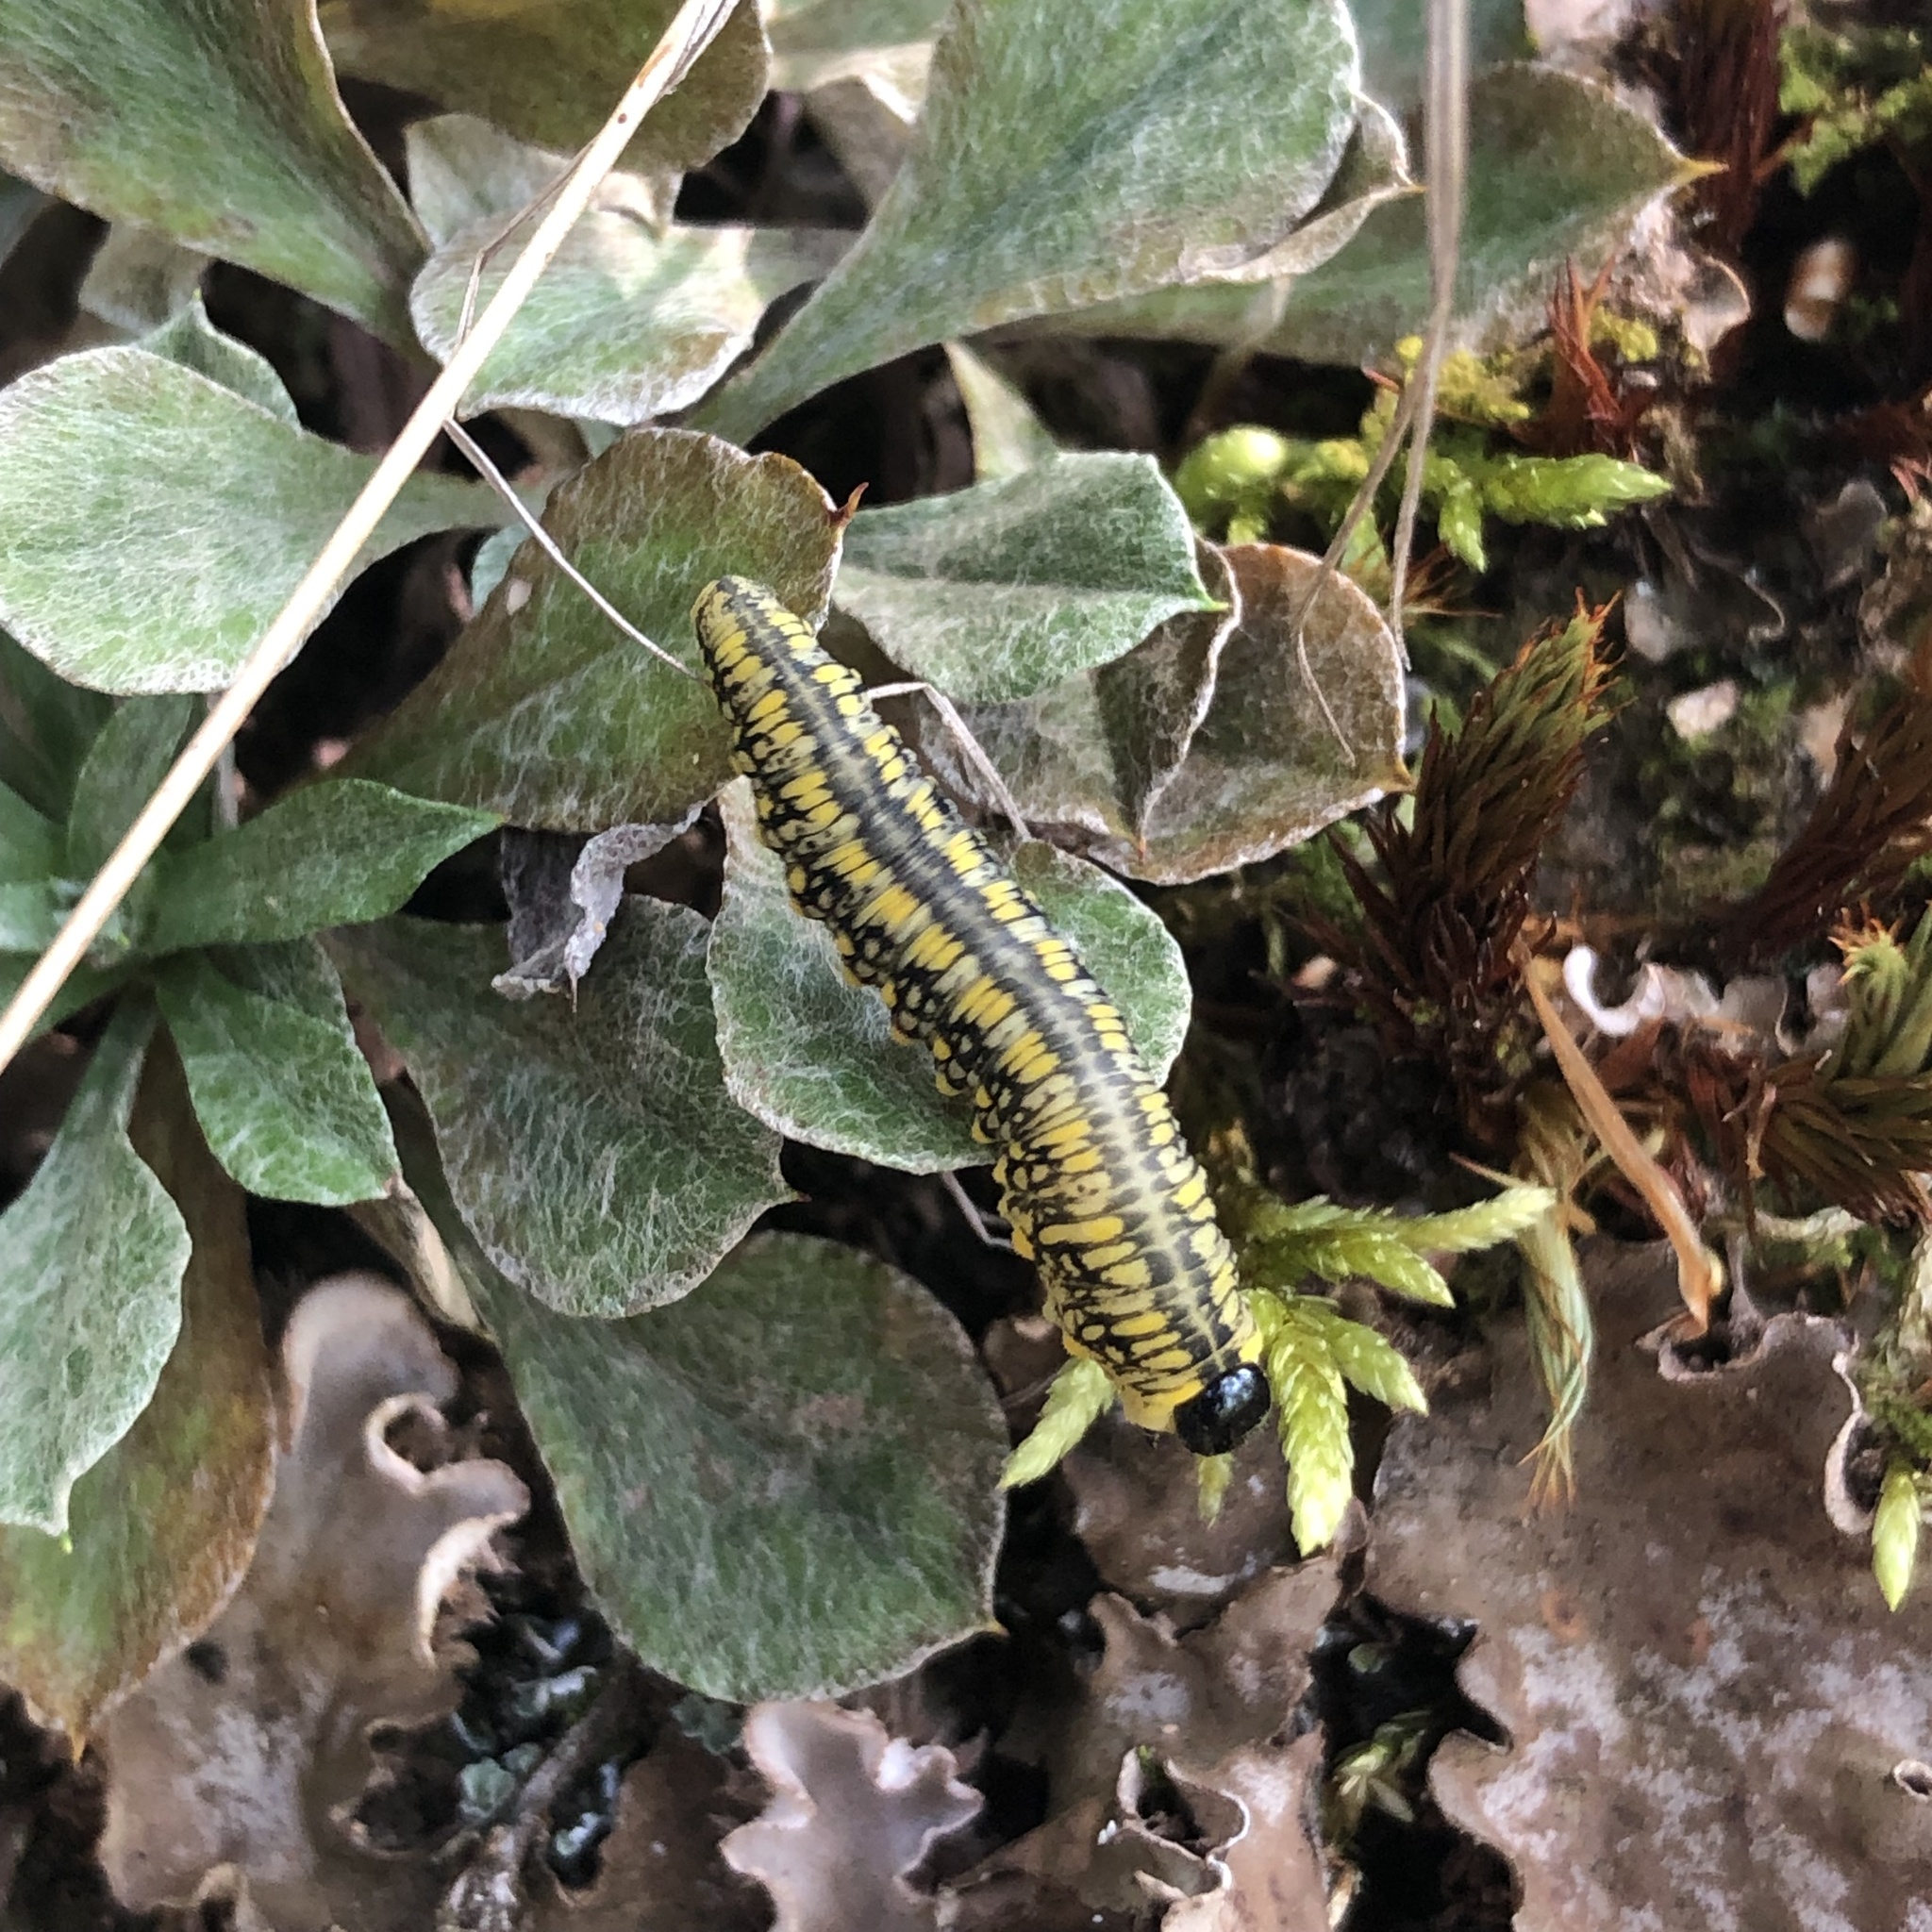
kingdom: Animalia
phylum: Arthropoda
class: Insecta
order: Hymenoptera
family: Diprionidae
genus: Diprion
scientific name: Diprion similis
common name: Pine sawfly
